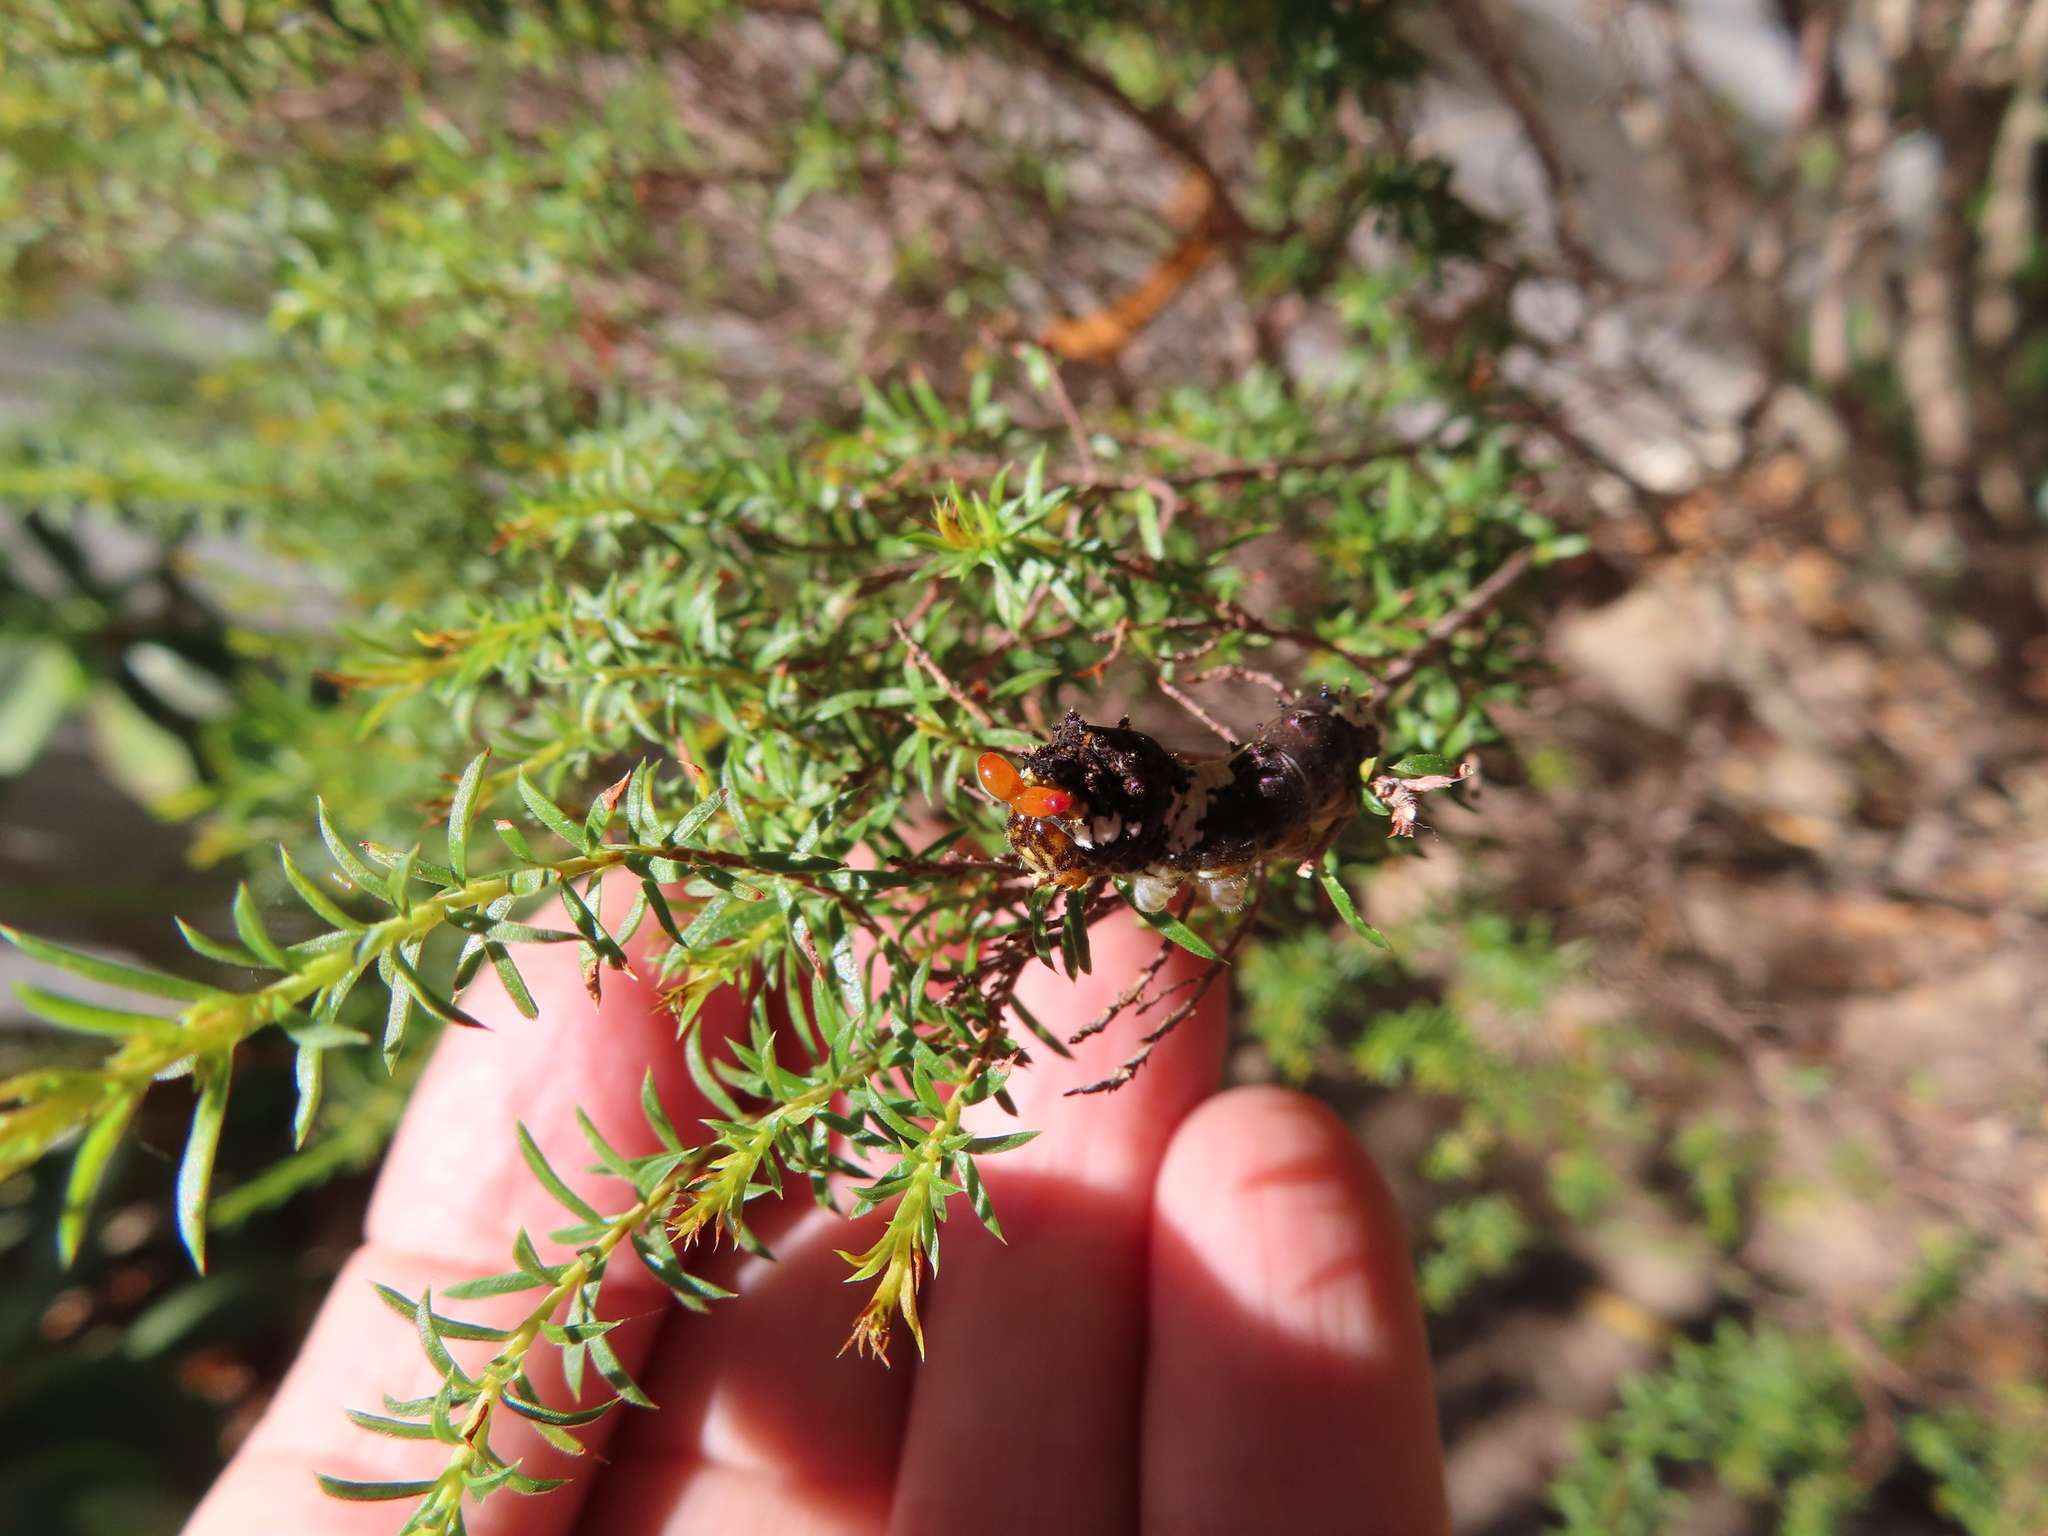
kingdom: Animalia
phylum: Arthropoda
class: Insecta
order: Lepidoptera
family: Papilionidae
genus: Papilio
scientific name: Papilio demodocus
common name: Christmas butterfly
